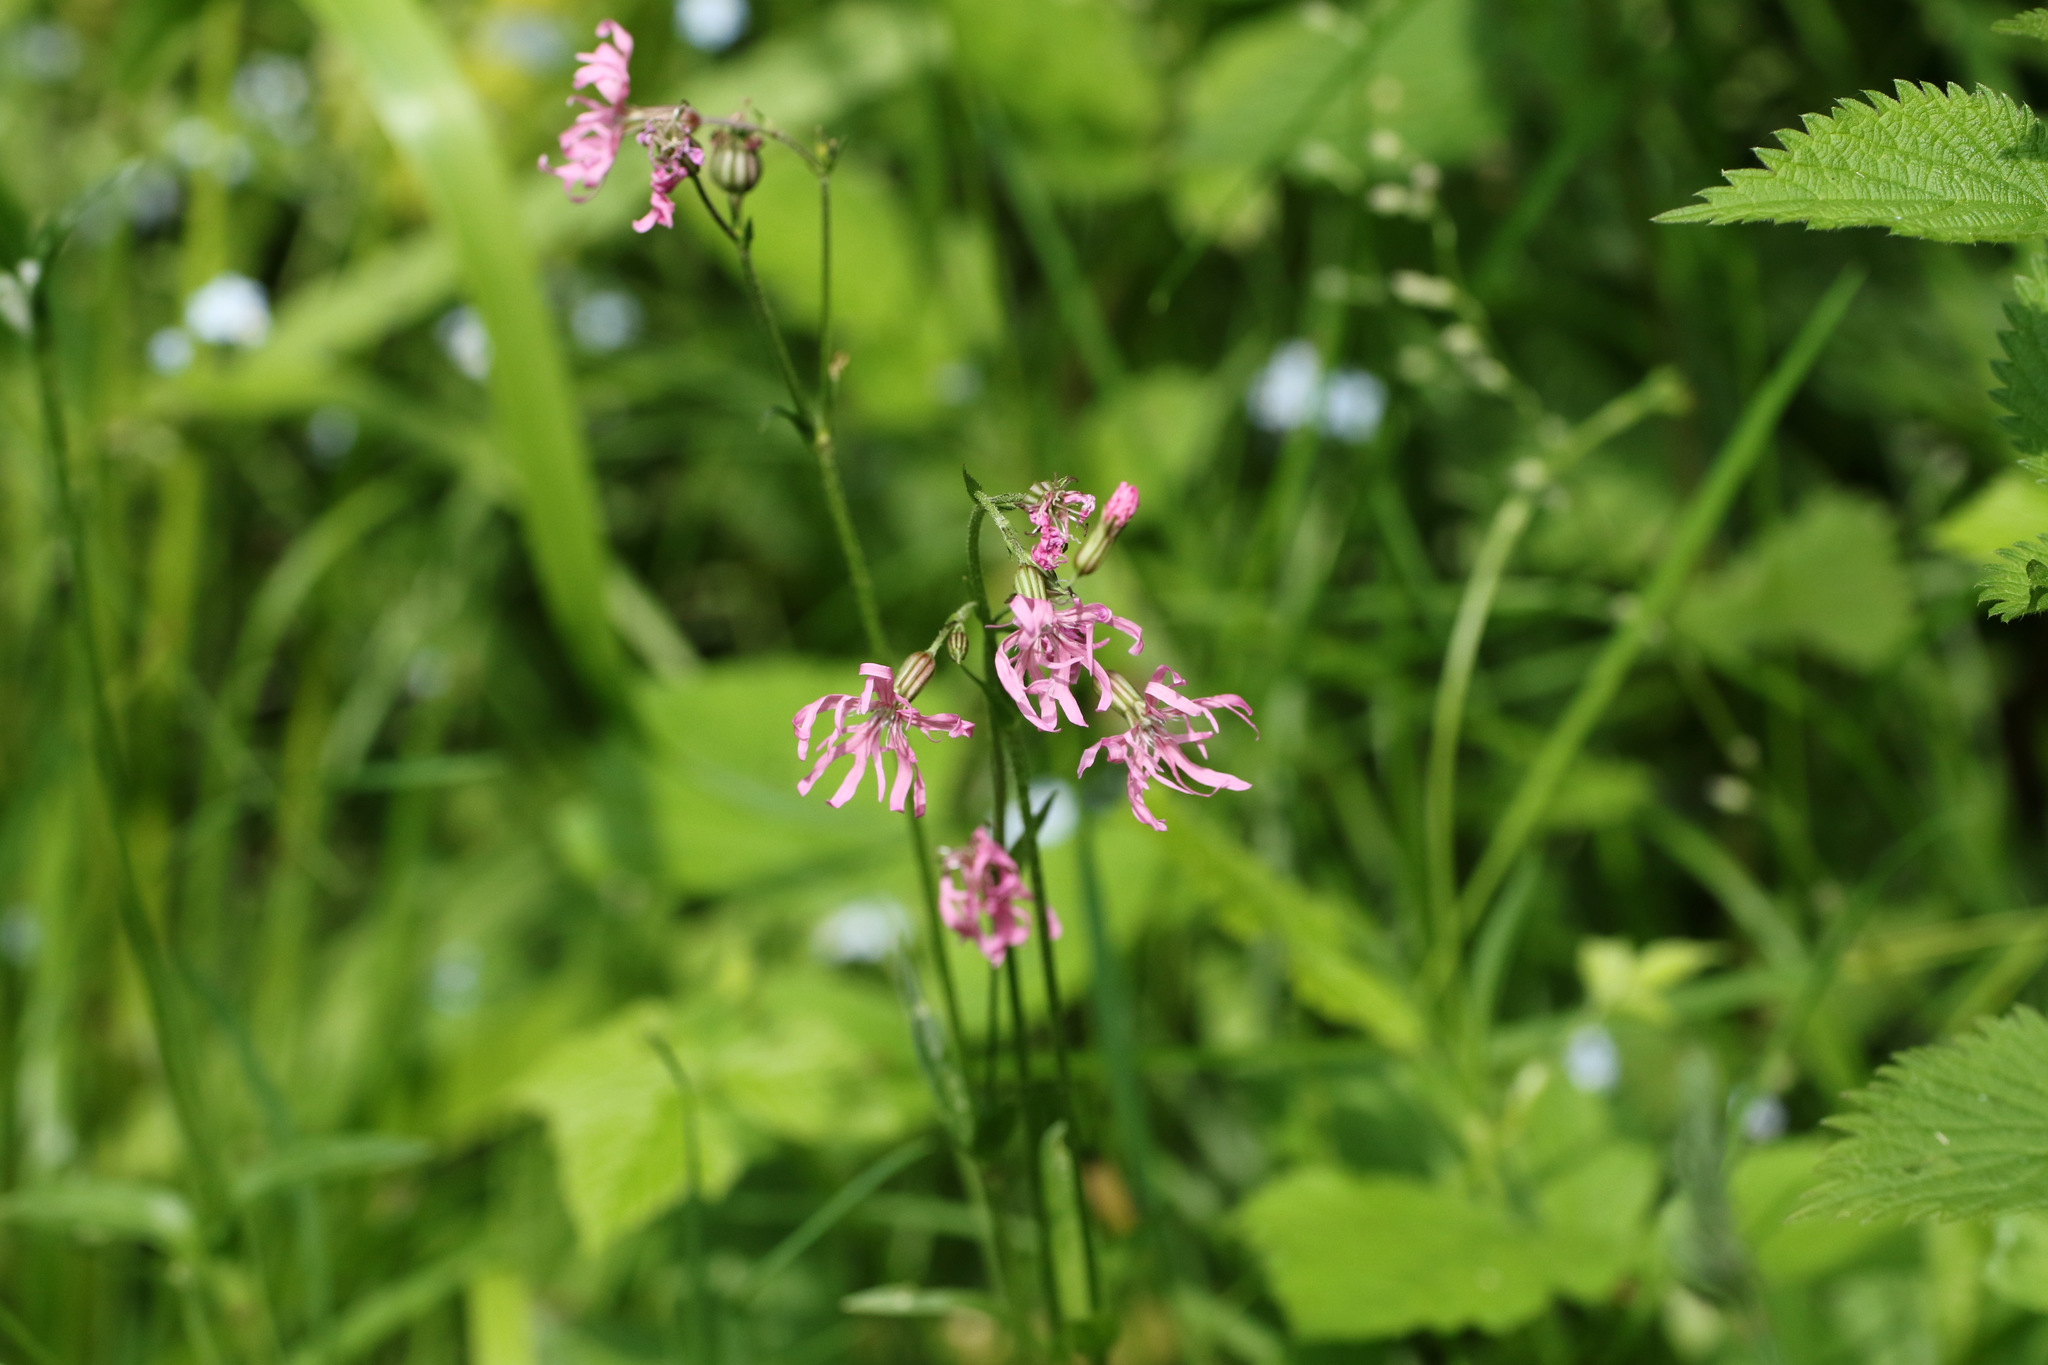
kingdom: Plantae
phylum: Tracheophyta
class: Magnoliopsida
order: Caryophyllales
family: Caryophyllaceae
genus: Silene
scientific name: Silene flos-cuculi
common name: Ragged-robin
